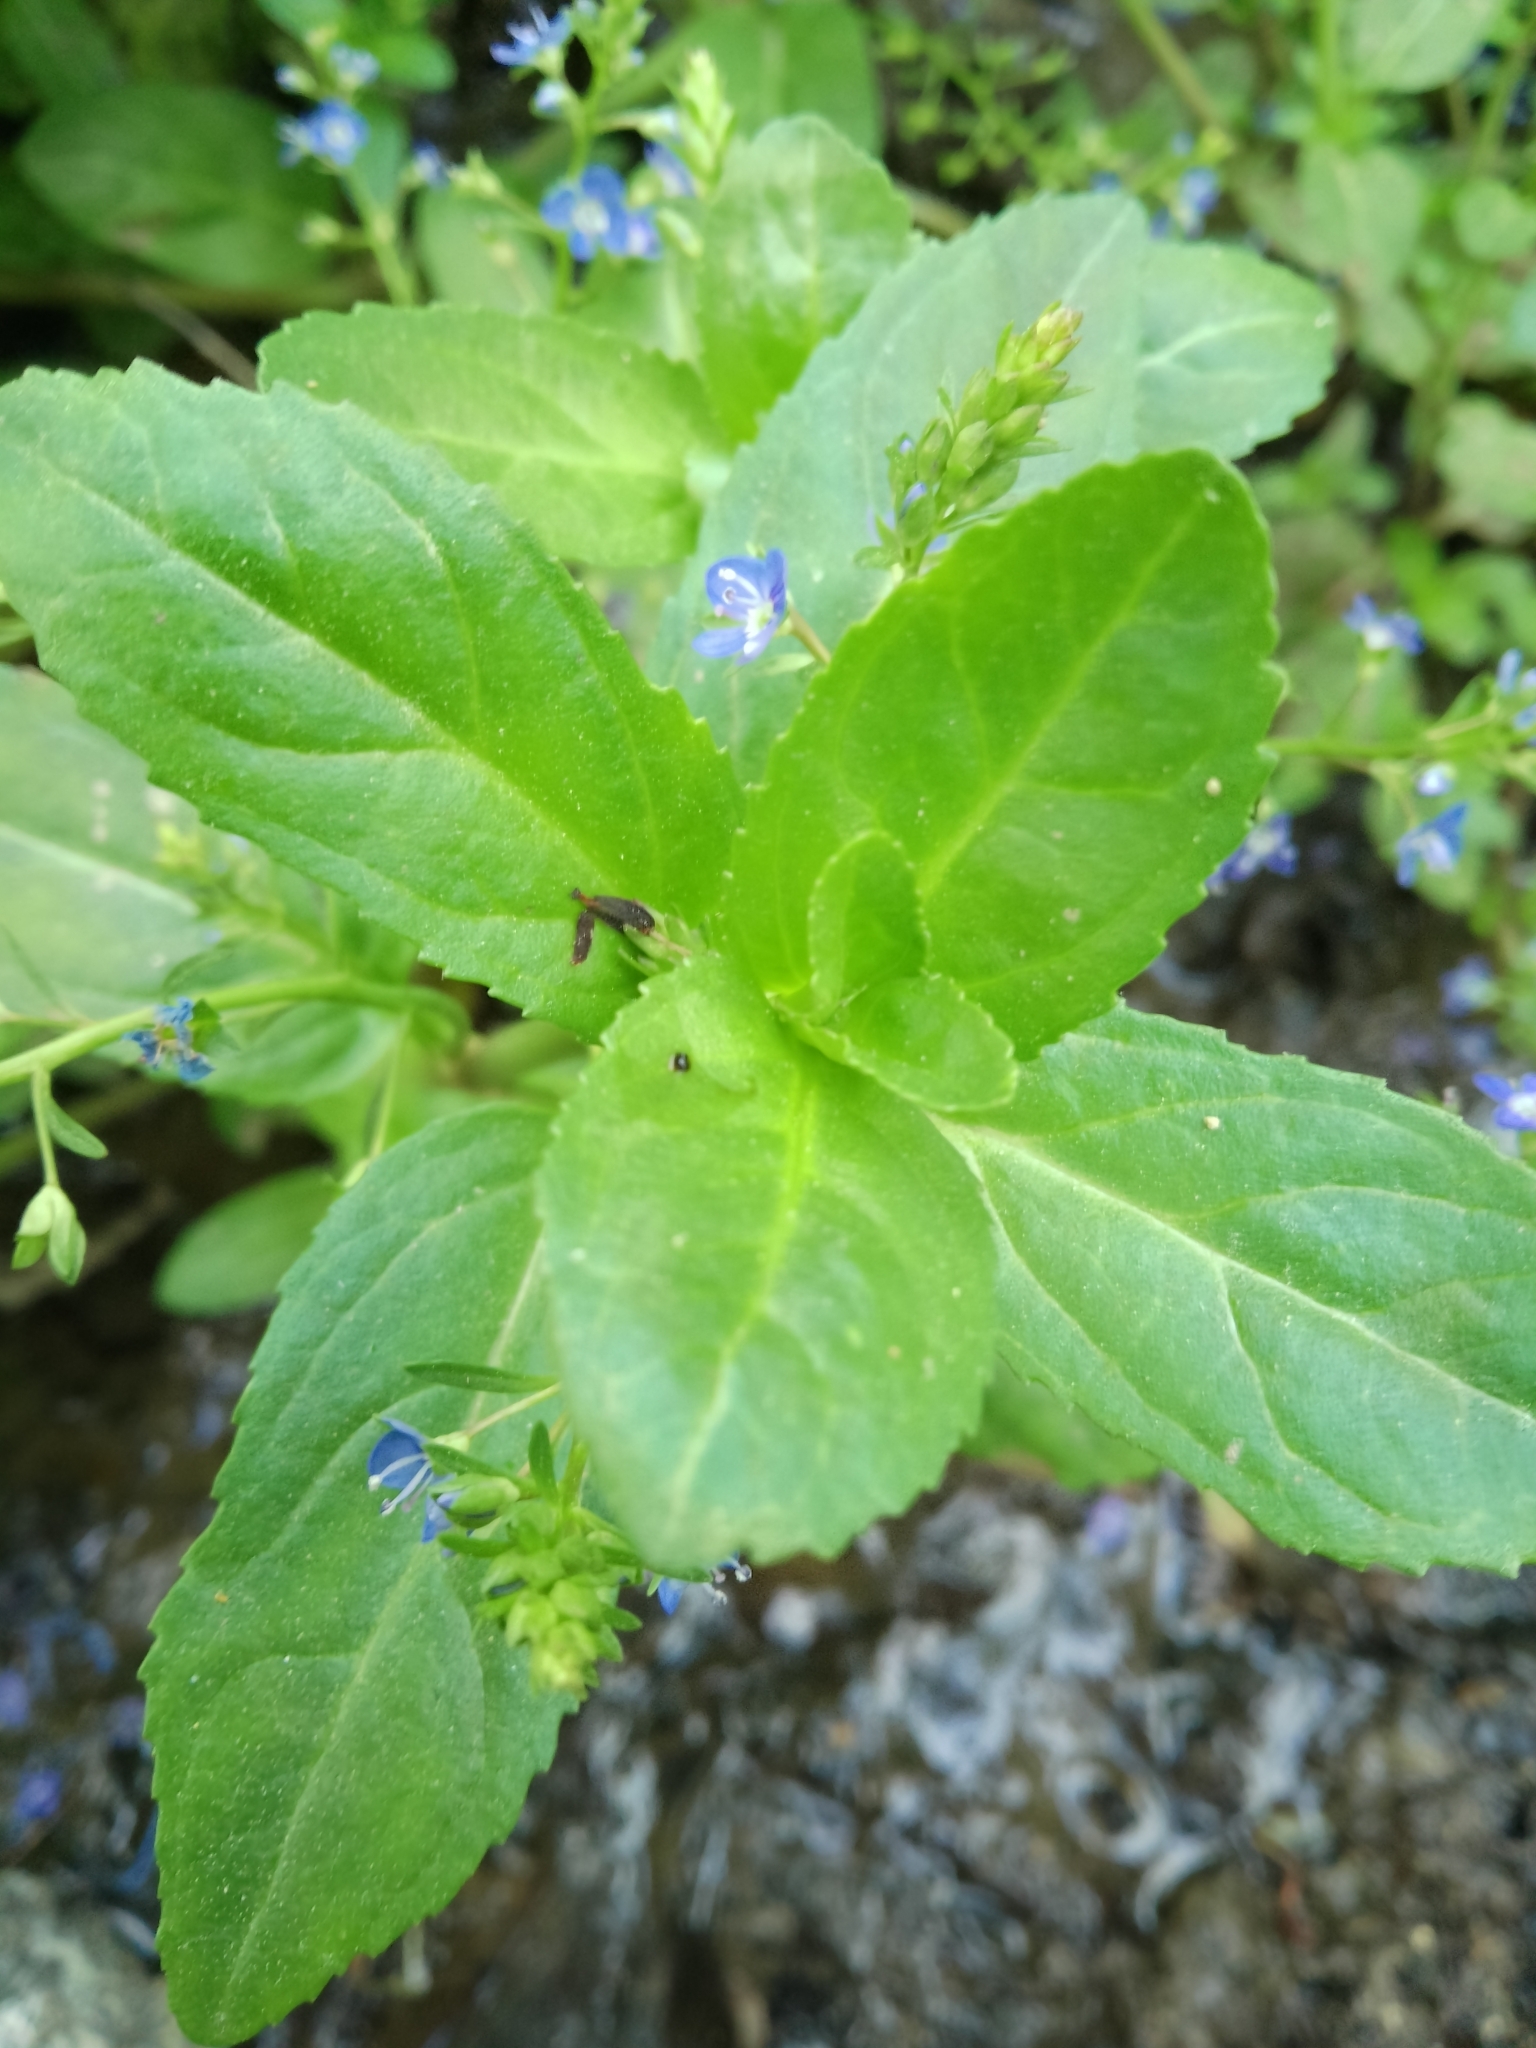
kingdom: Plantae
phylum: Tracheophyta
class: Magnoliopsida
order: Lamiales
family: Plantaginaceae
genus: Veronica
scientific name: Veronica beccabunga
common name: Brooklime
